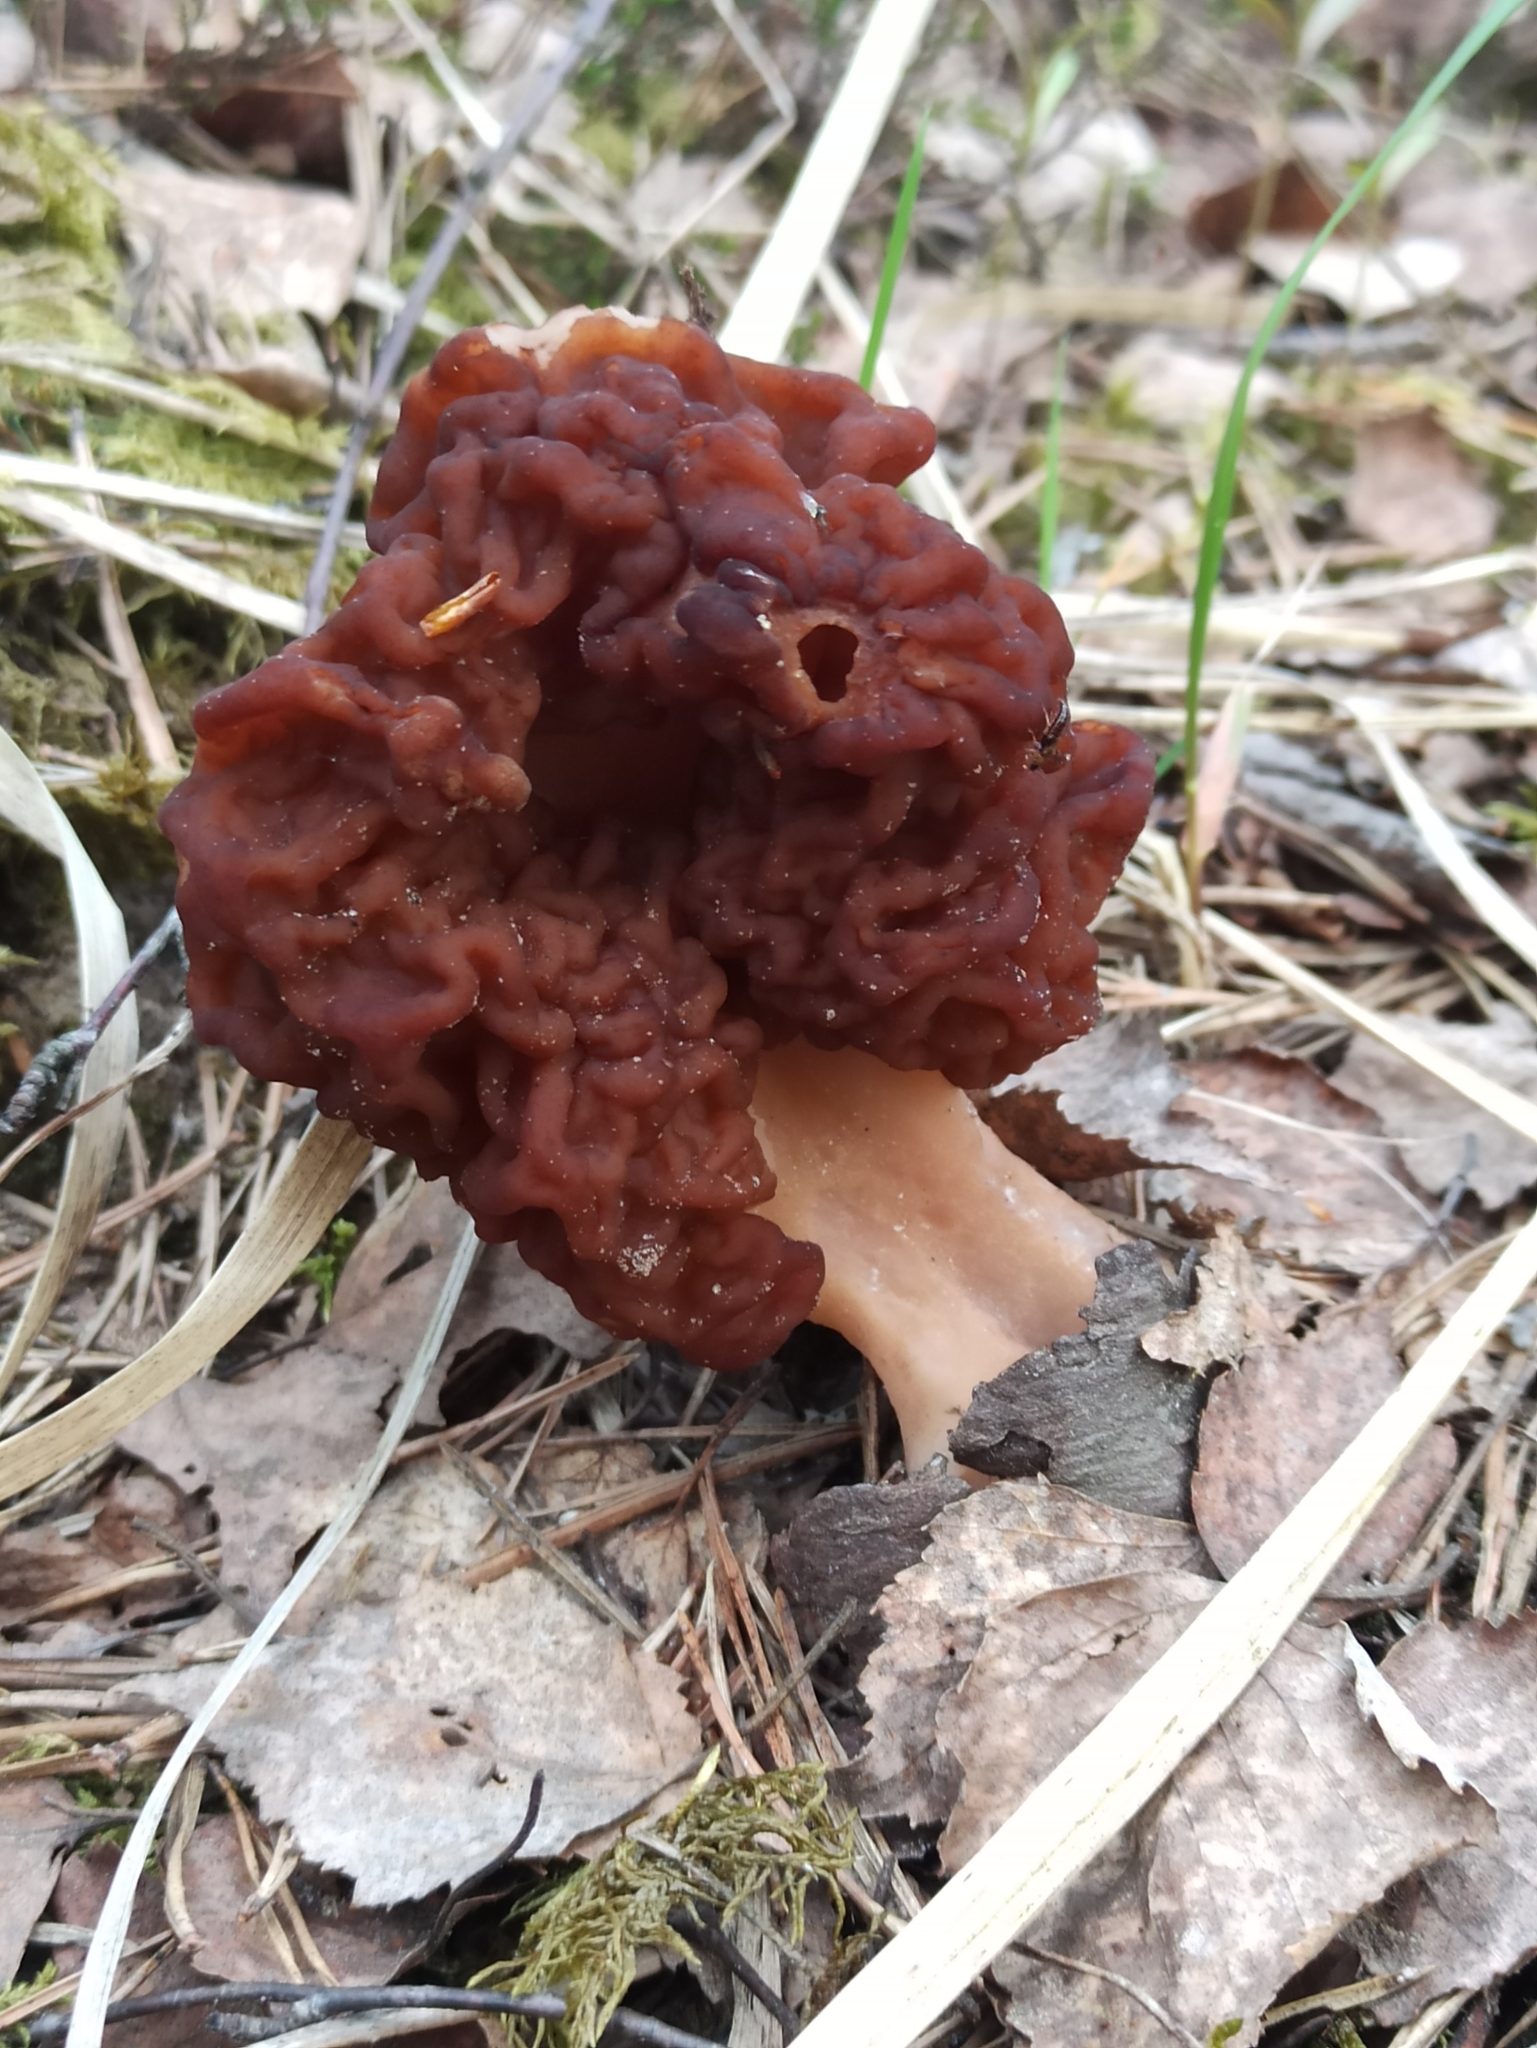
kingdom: Fungi
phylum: Ascomycota
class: Pezizomycetes
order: Pezizales
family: Discinaceae
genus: Gyromitra
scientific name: Gyromitra esculenta
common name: False morel
